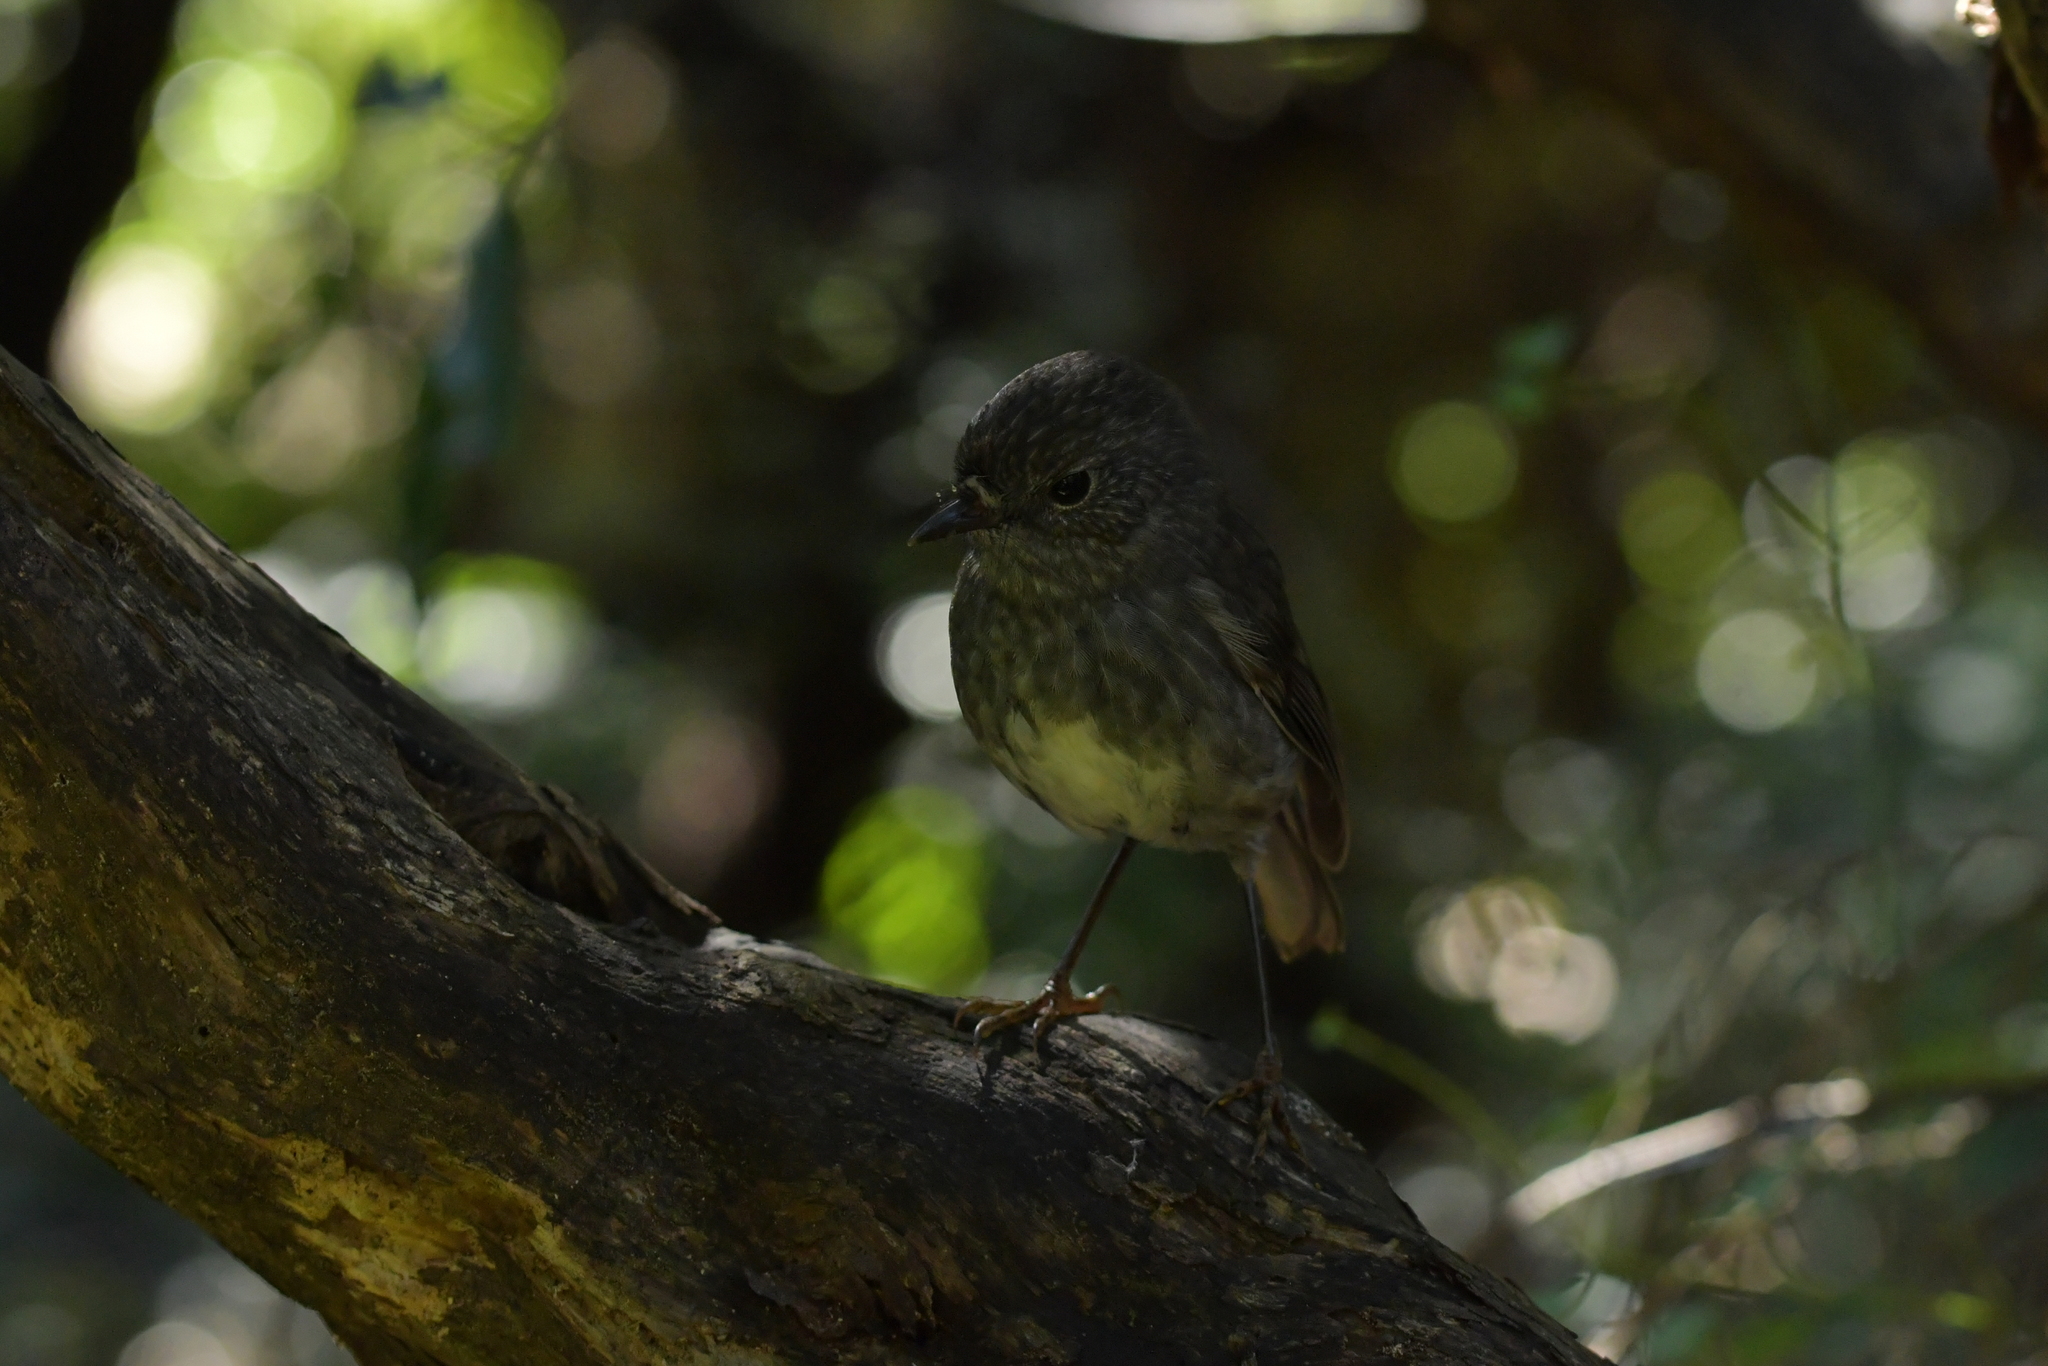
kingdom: Animalia
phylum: Chordata
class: Aves
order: Passeriformes
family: Petroicidae
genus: Petroica
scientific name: Petroica australis
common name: New zealand robin
